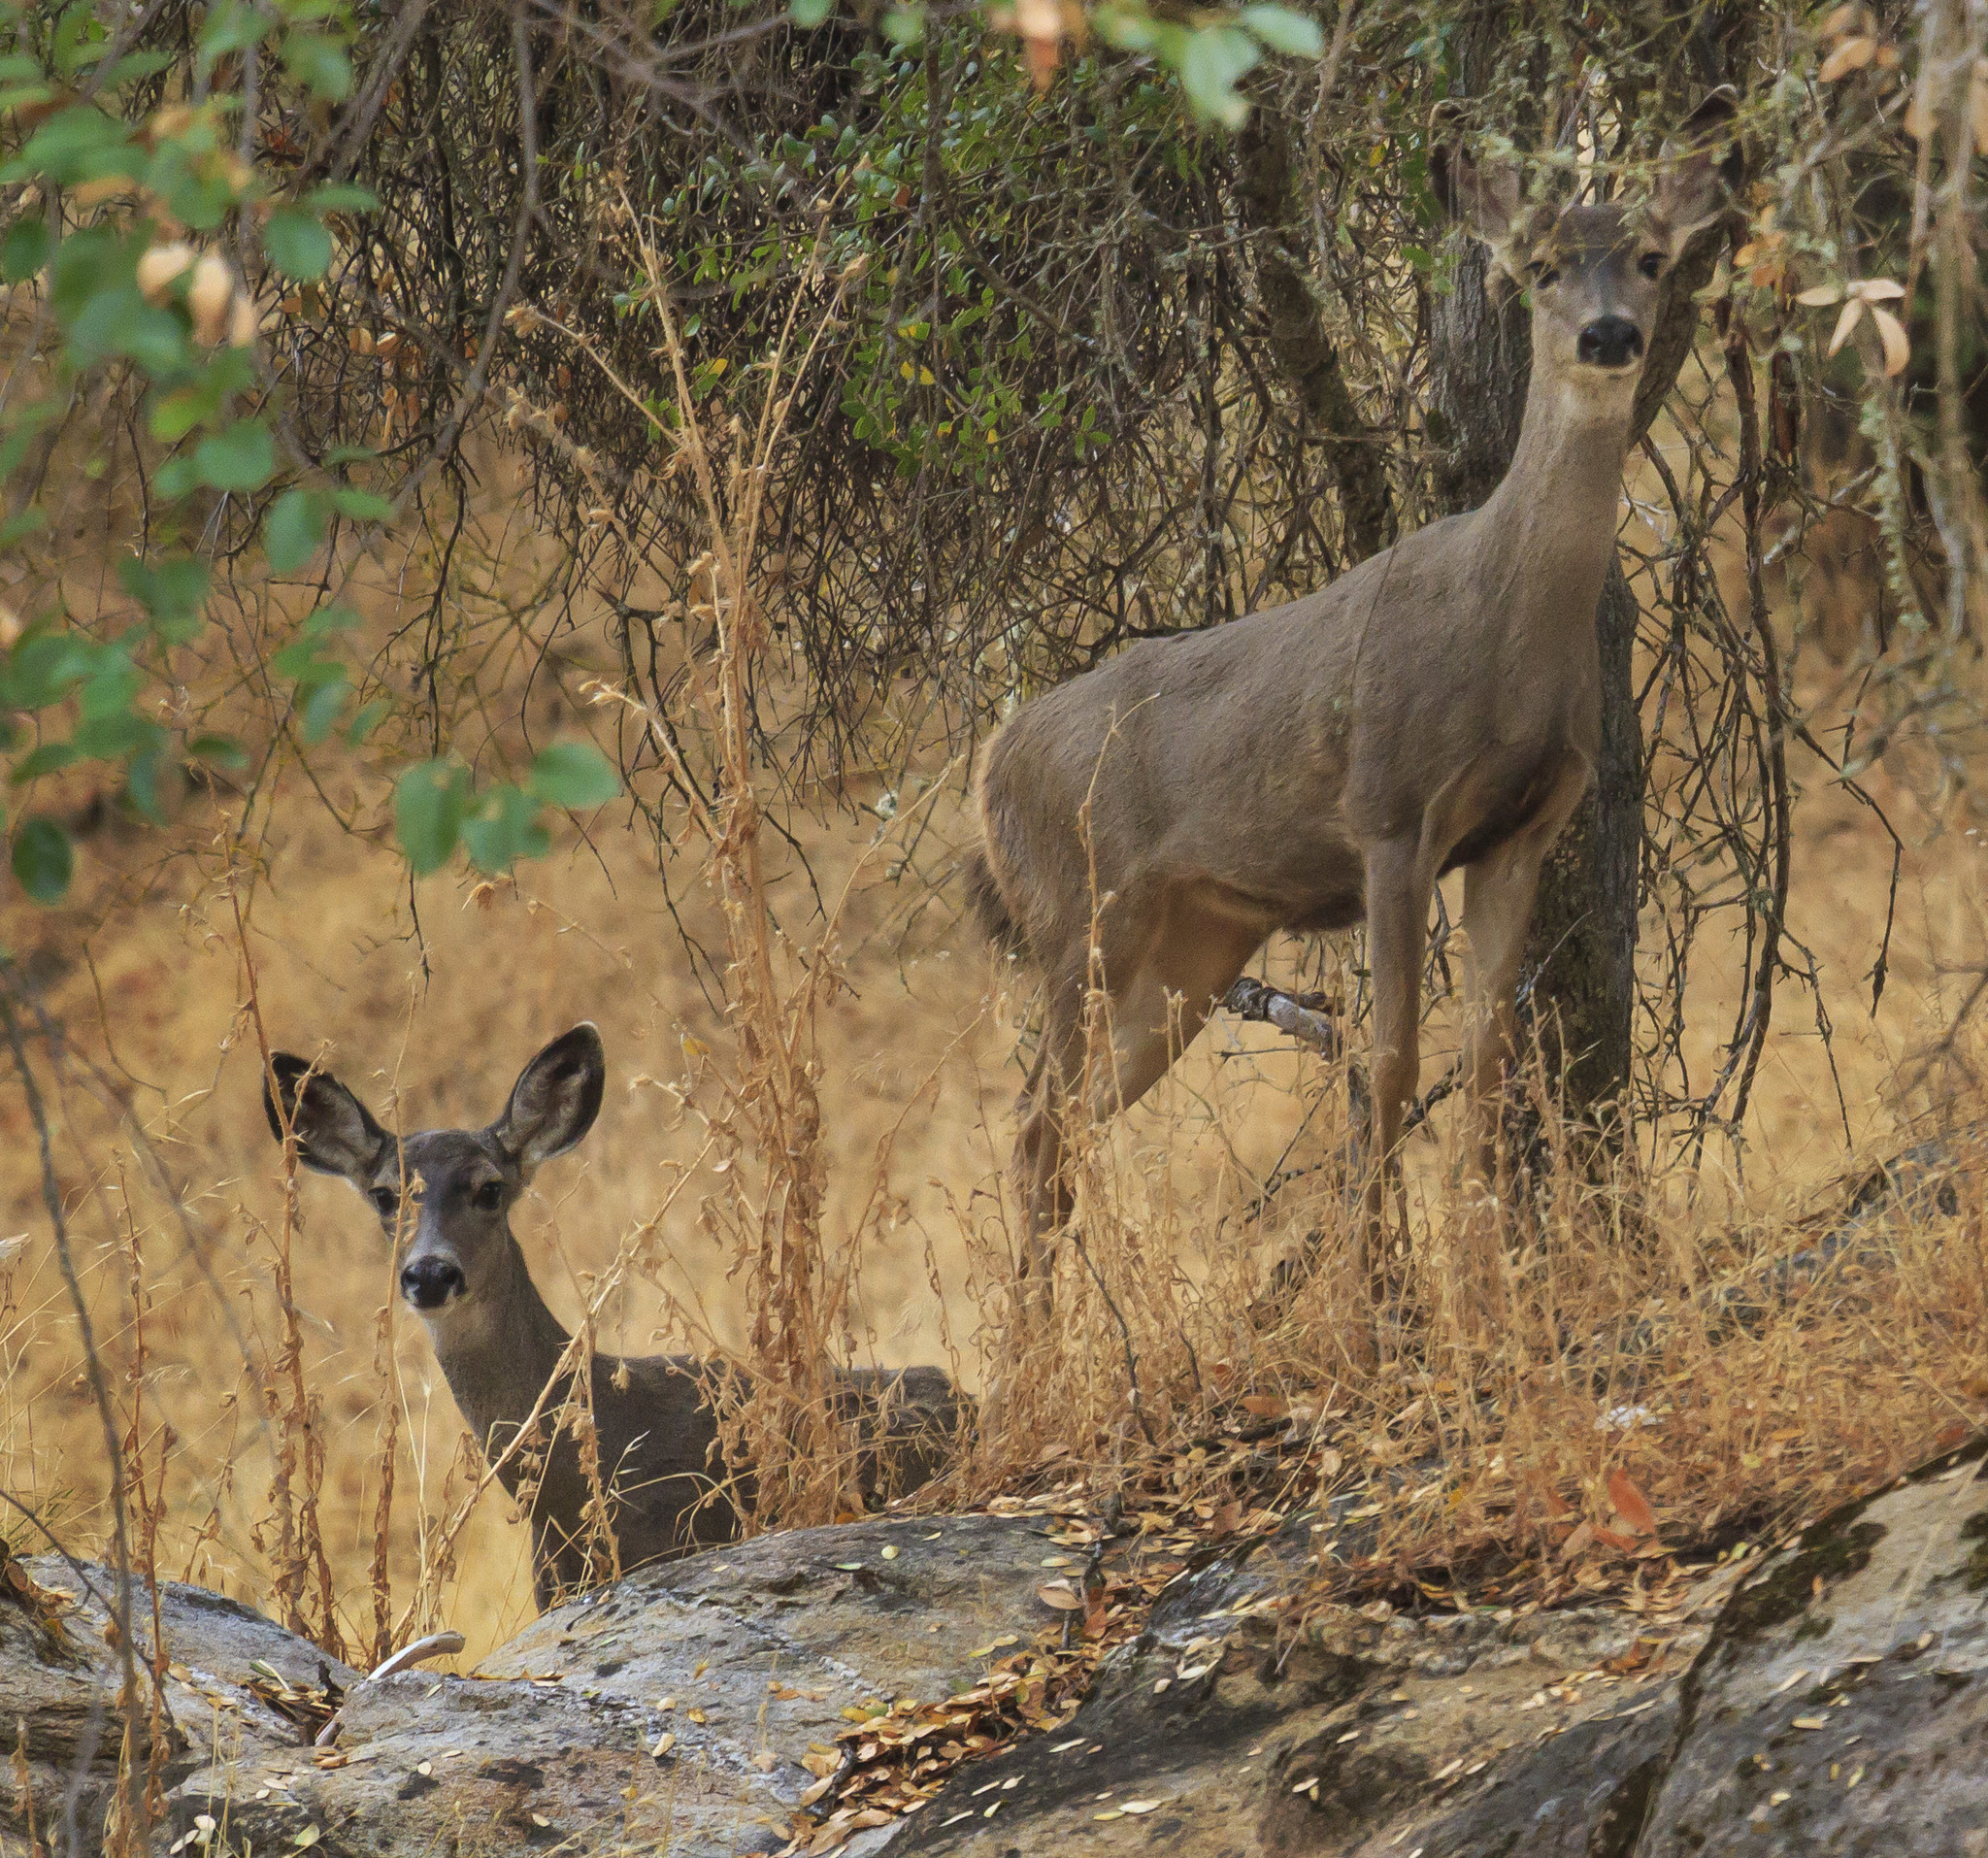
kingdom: Animalia
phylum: Chordata
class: Mammalia
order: Artiodactyla
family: Cervidae
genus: Odocoileus
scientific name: Odocoileus hemionus
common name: Mule deer
